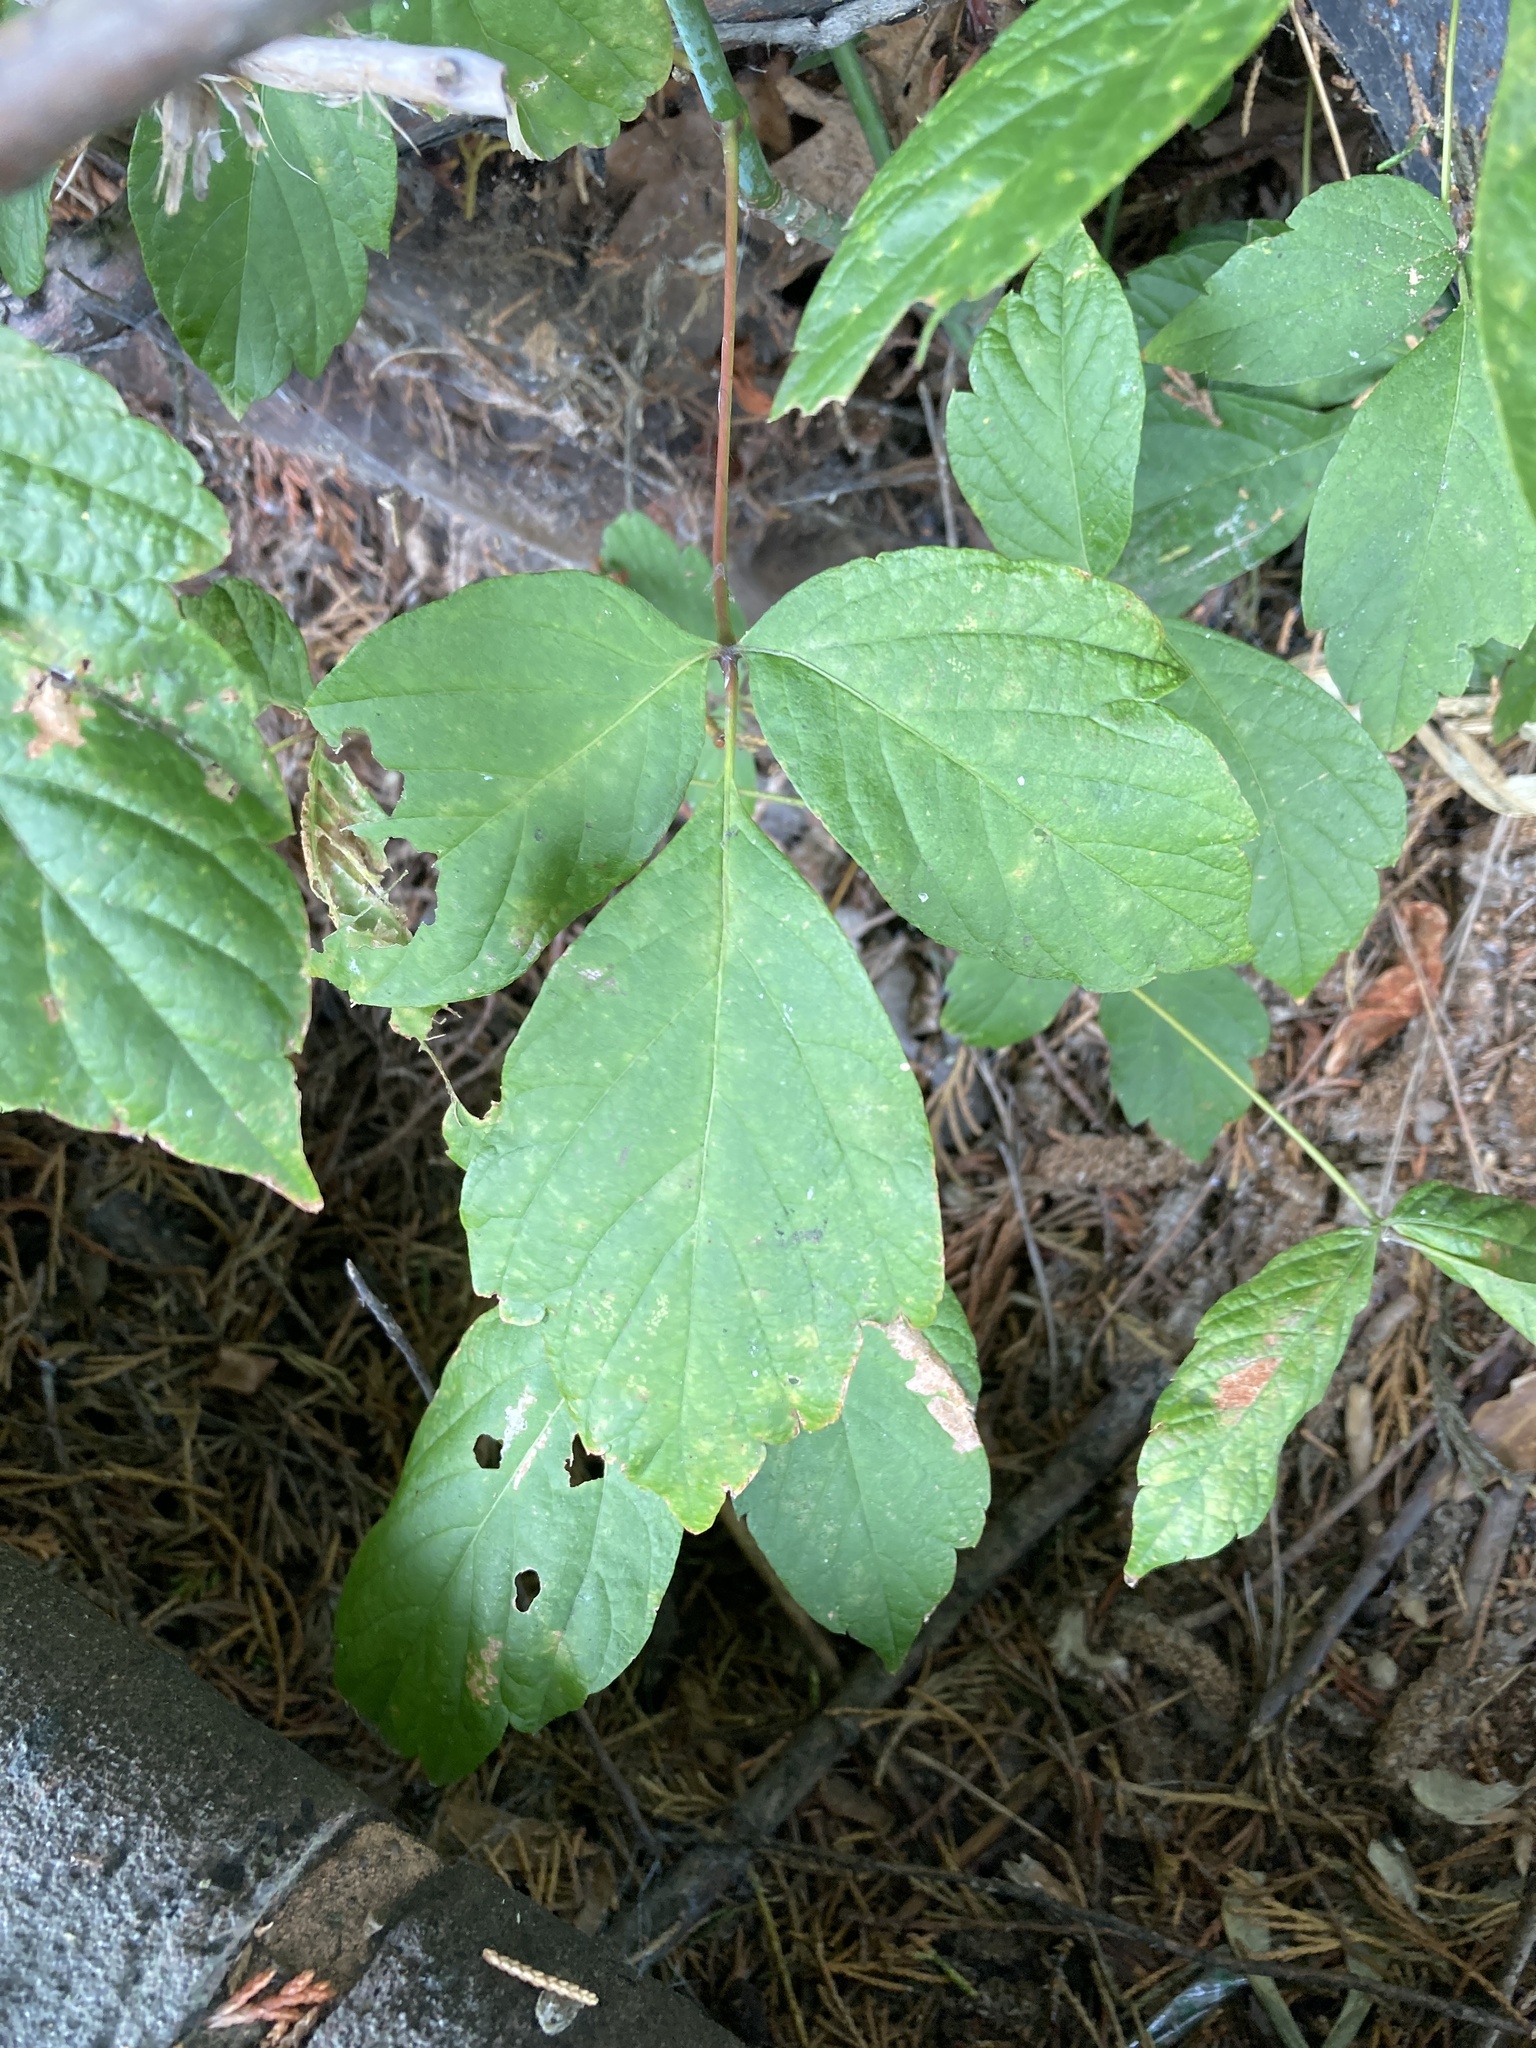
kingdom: Plantae
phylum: Tracheophyta
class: Magnoliopsida
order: Sapindales
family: Sapindaceae
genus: Acer
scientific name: Acer negundo
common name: Ashleaf maple
